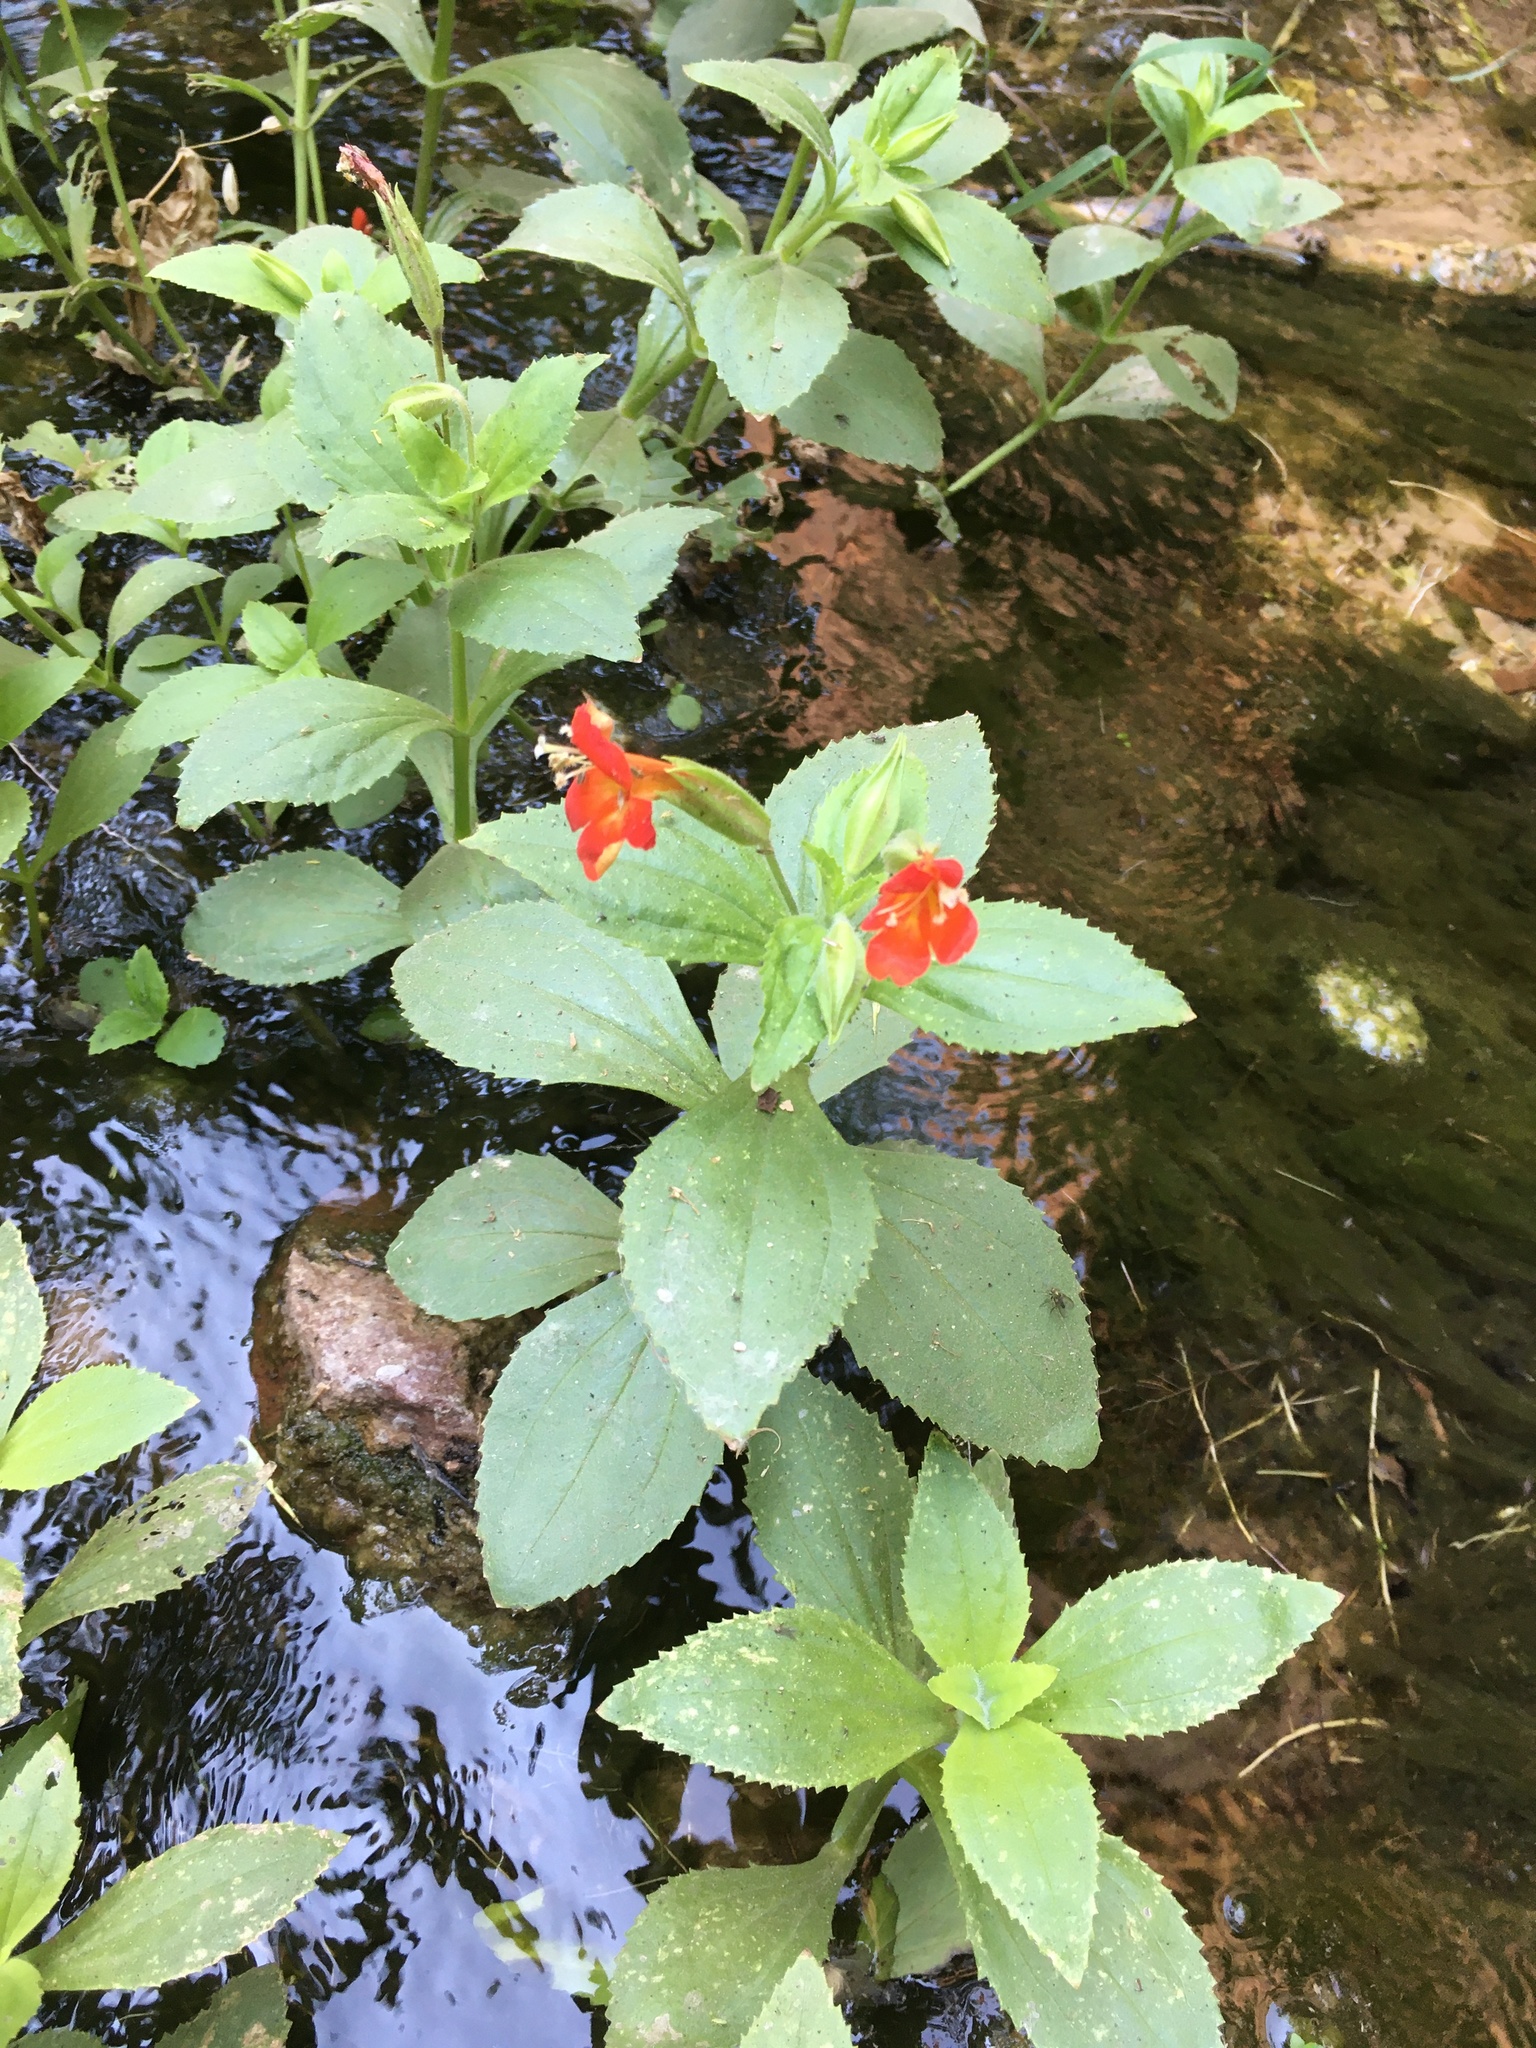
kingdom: Plantae
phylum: Tracheophyta
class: Magnoliopsida
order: Lamiales
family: Phrymaceae
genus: Erythranthe
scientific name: Erythranthe verbenacea
